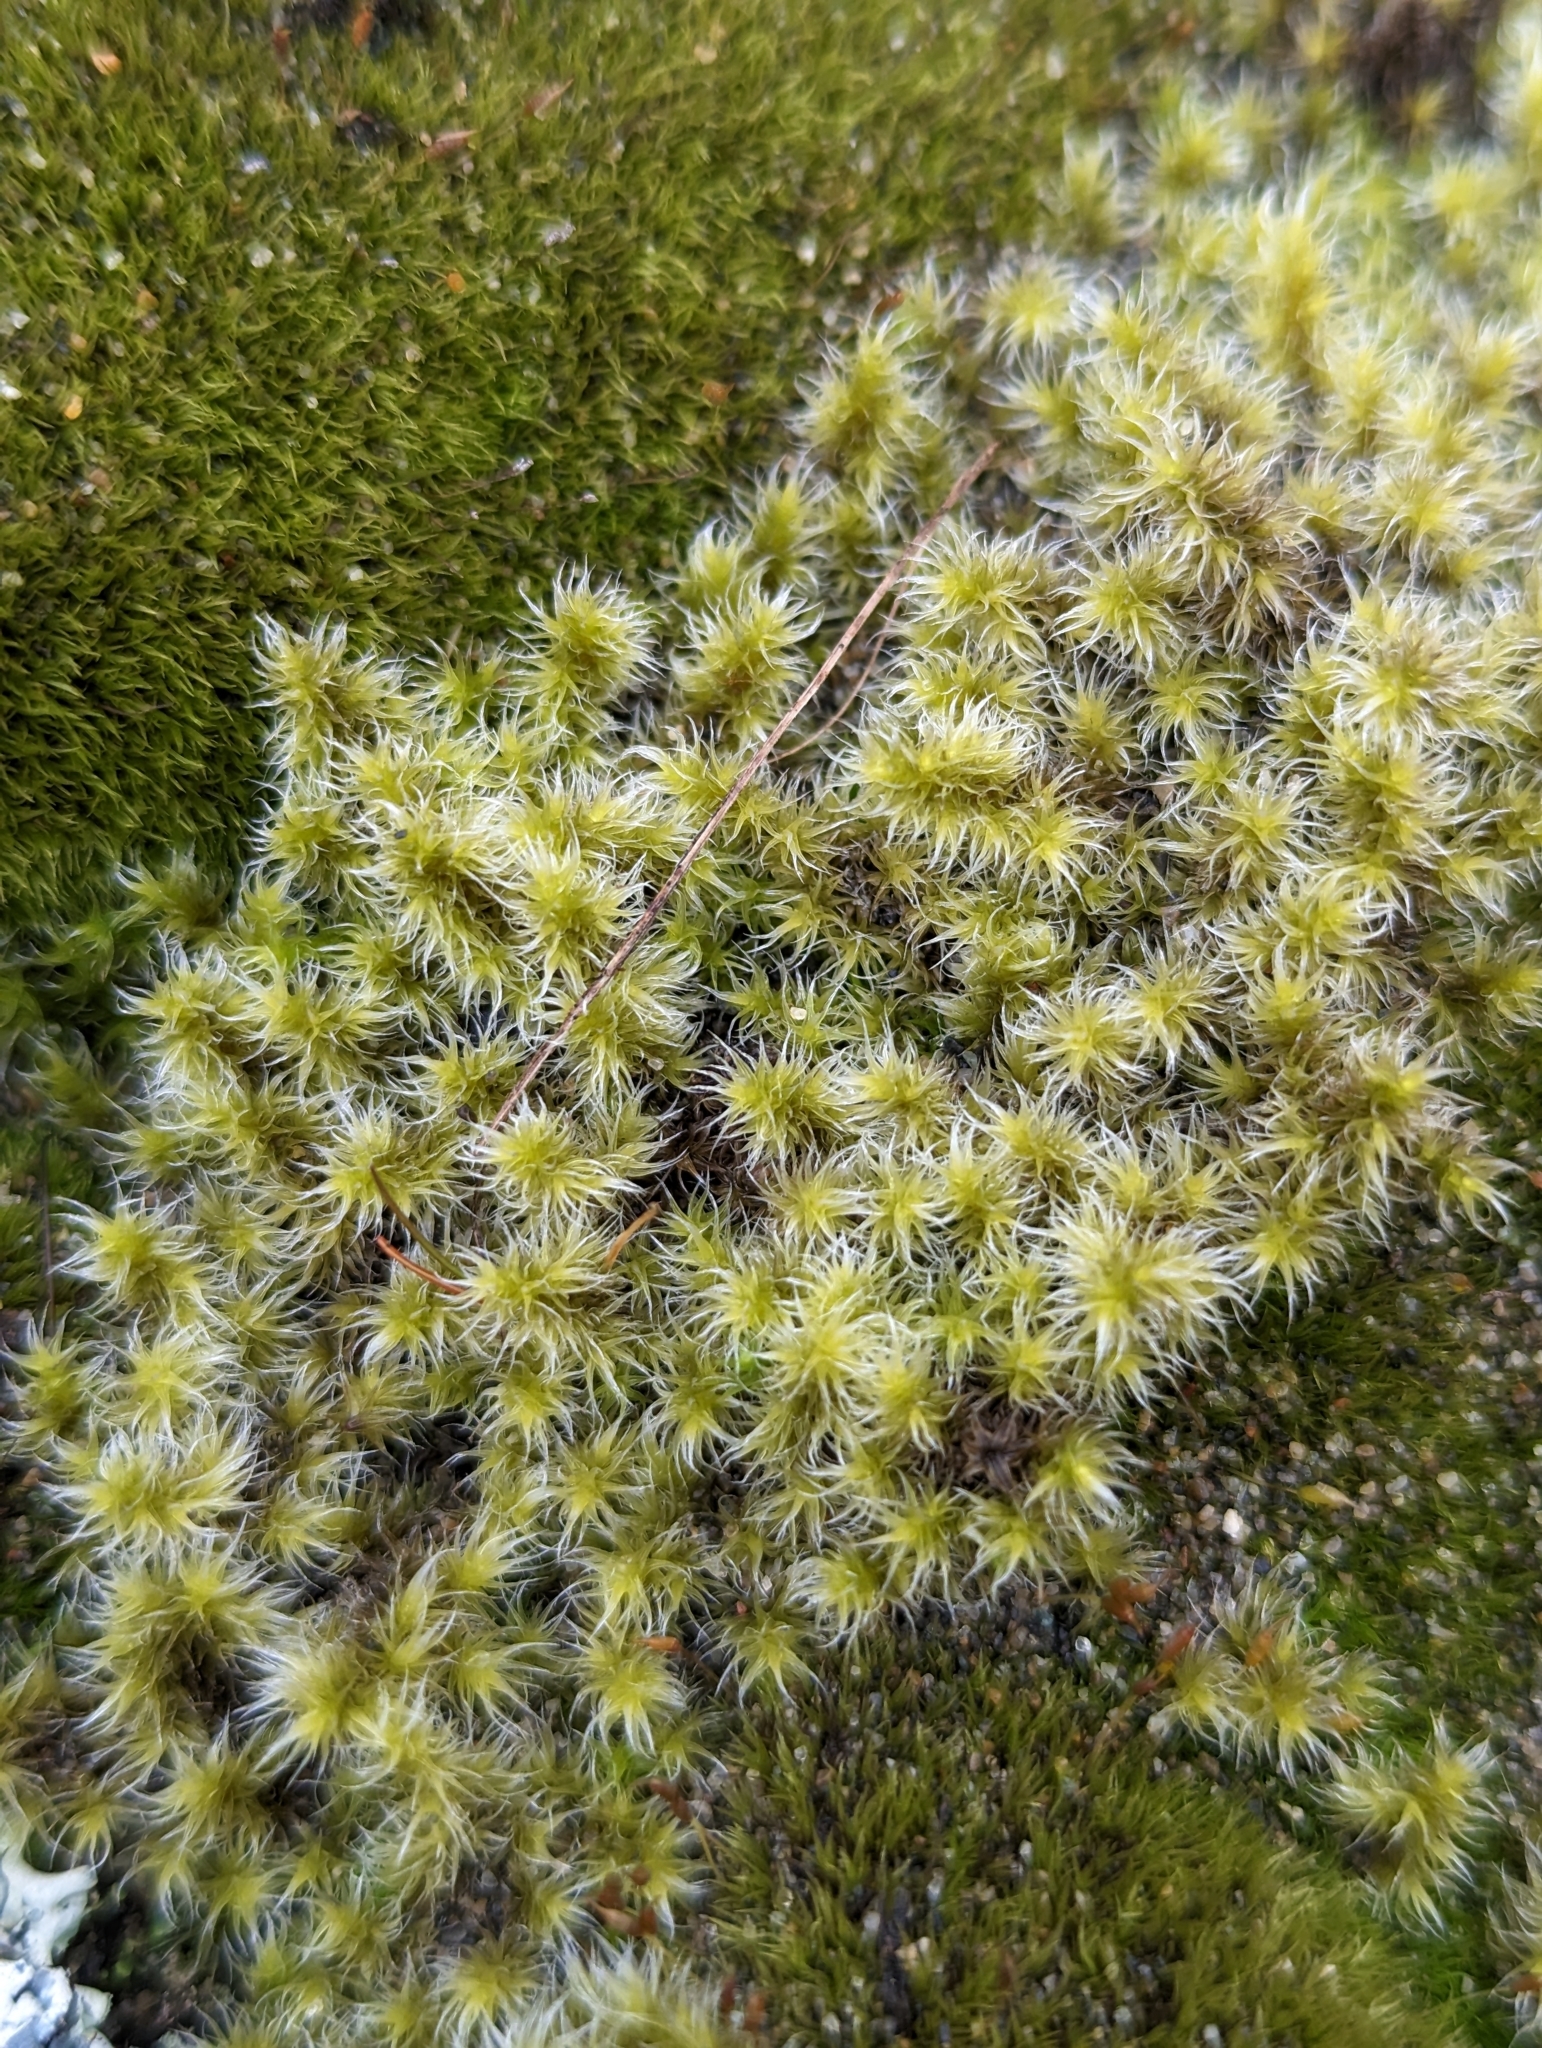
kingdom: Plantae
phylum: Bryophyta
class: Bryopsida
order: Grimmiales
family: Grimmiaceae
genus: Niphotrichum
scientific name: Niphotrichum elongatum
